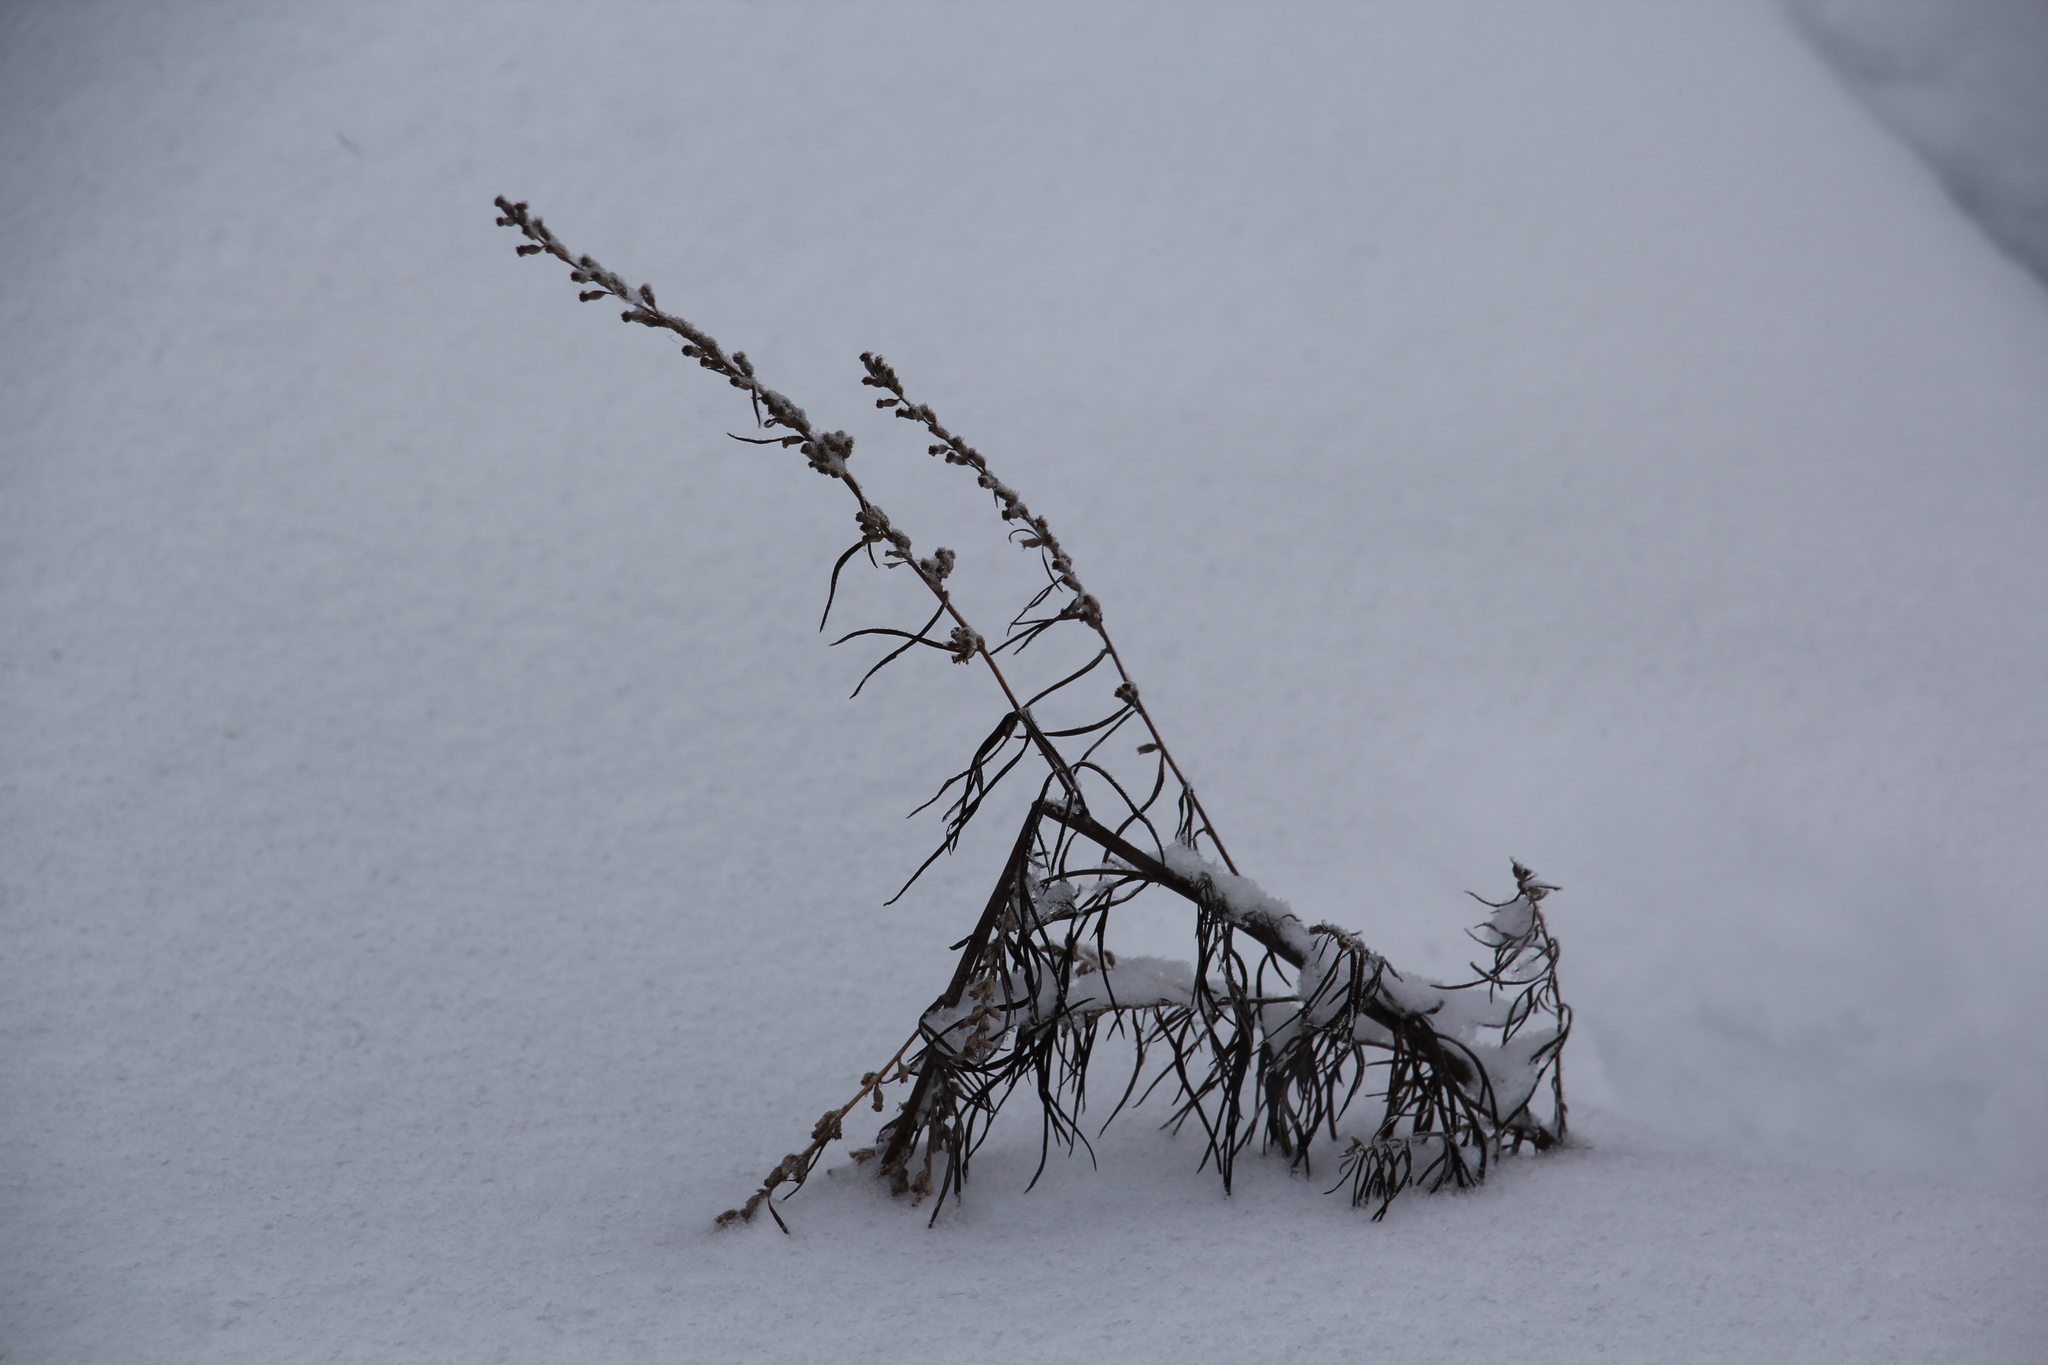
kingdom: Plantae
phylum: Tracheophyta
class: Magnoliopsida
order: Asterales
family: Asteraceae
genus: Artemisia
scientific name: Artemisia vulgaris
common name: Mugwort
